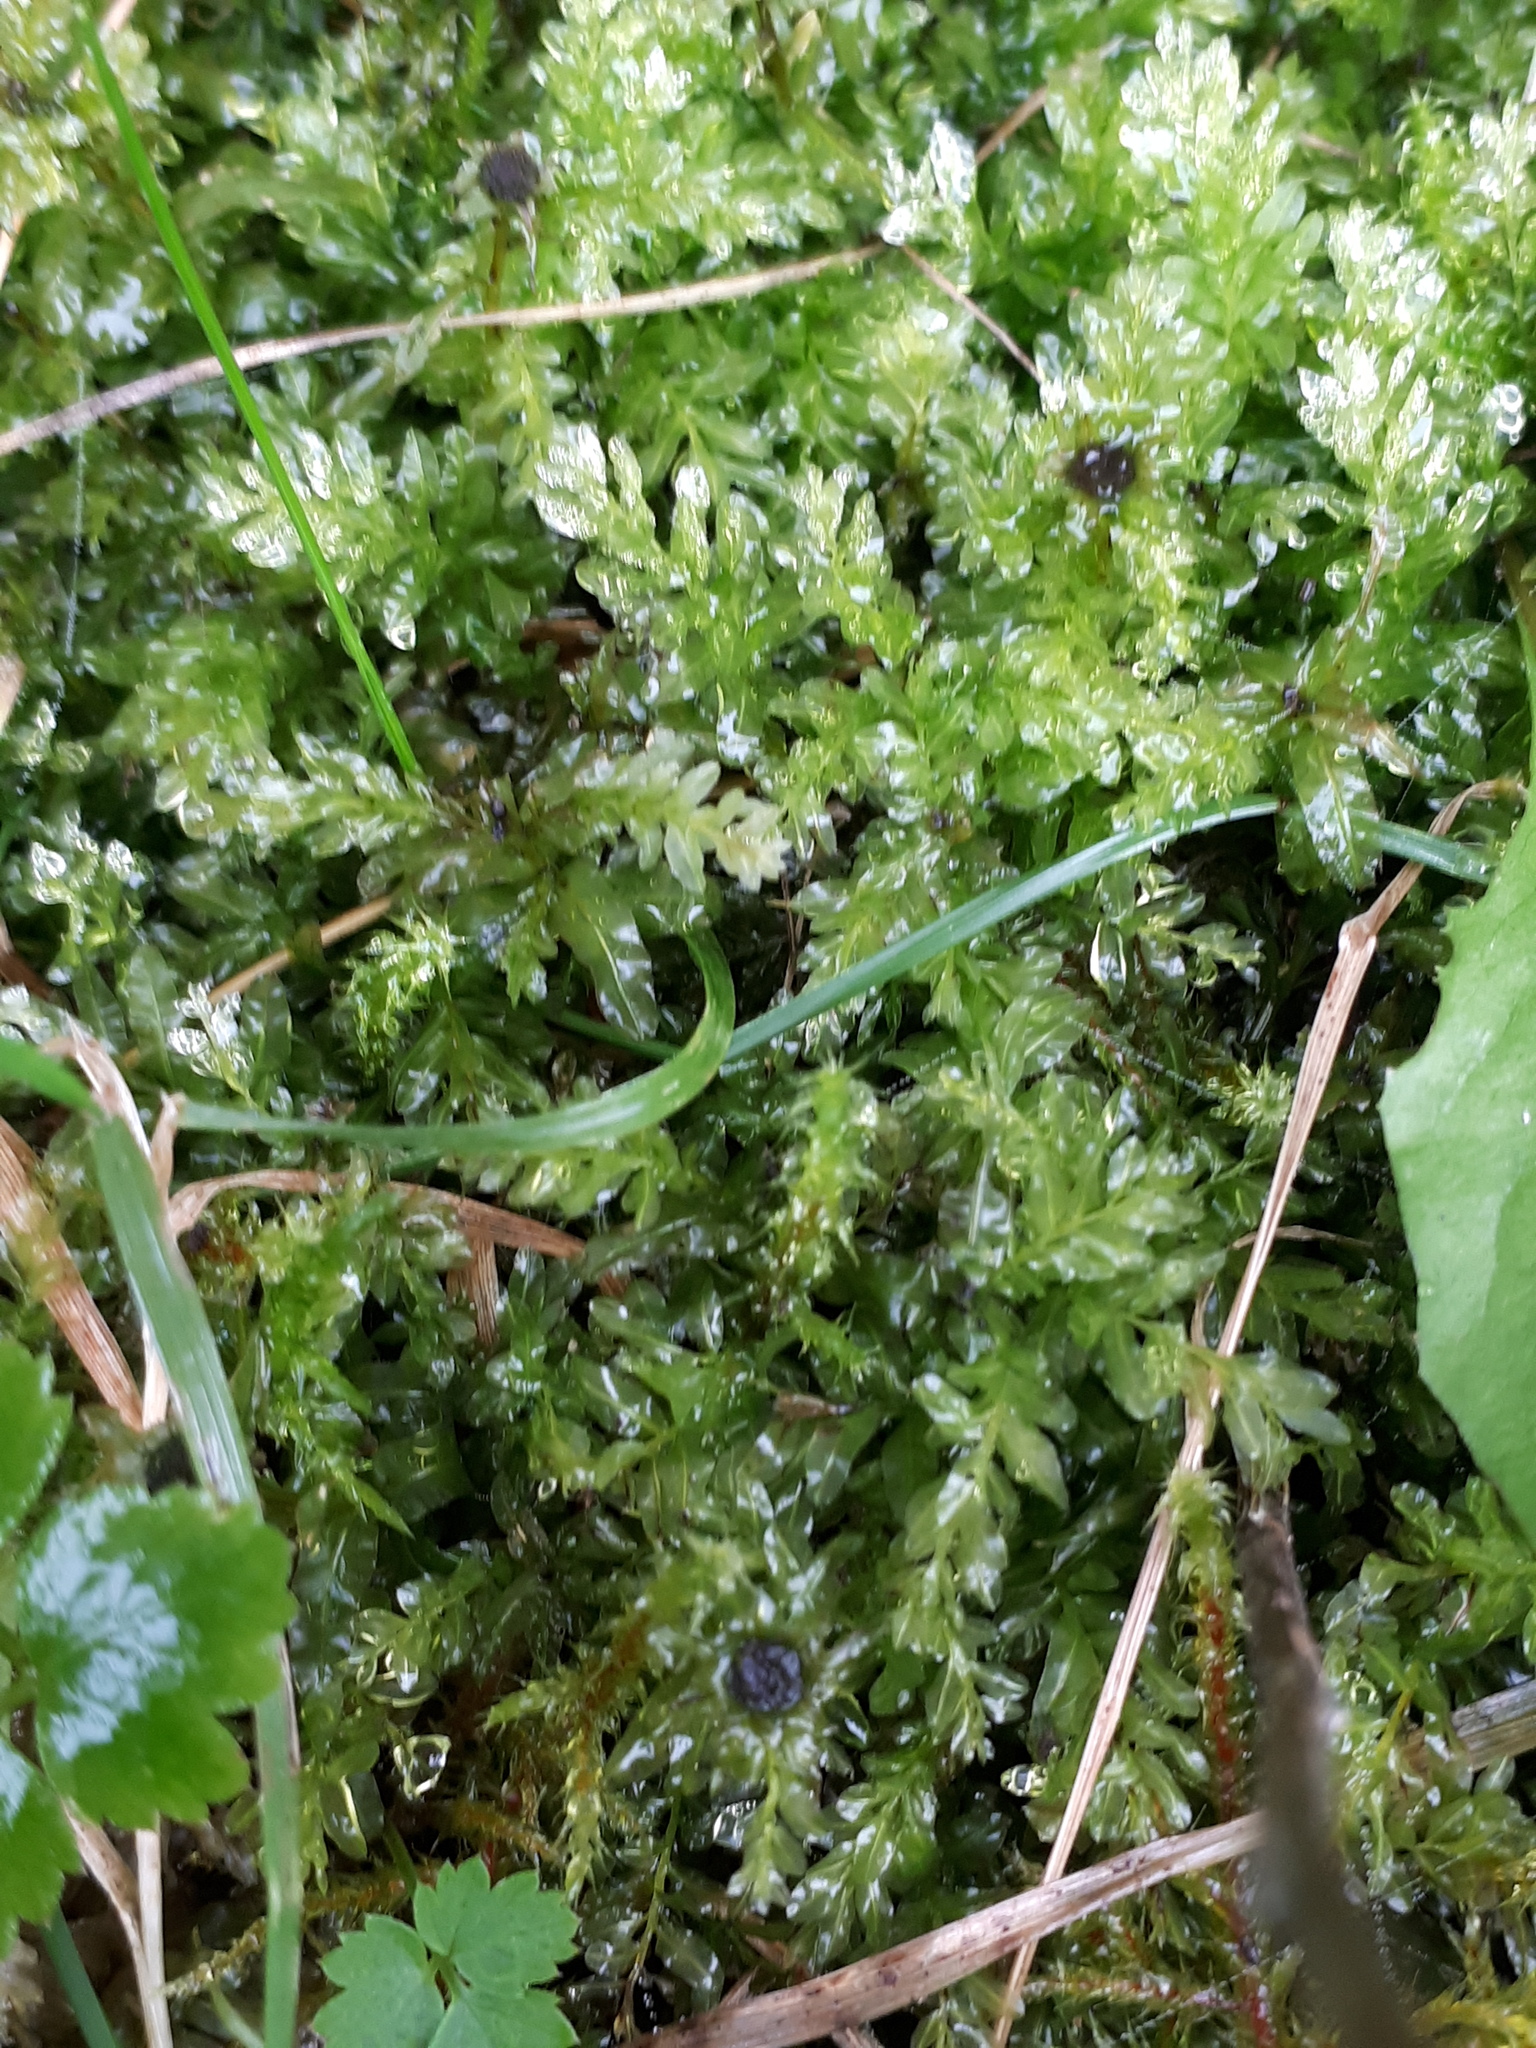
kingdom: Plantae
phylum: Bryophyta
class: Bryopsida
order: Bryales
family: Mniaceae
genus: Plagiomnium
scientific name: Plagiomnium undulatum
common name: Hart's-tongue thyme-moss
